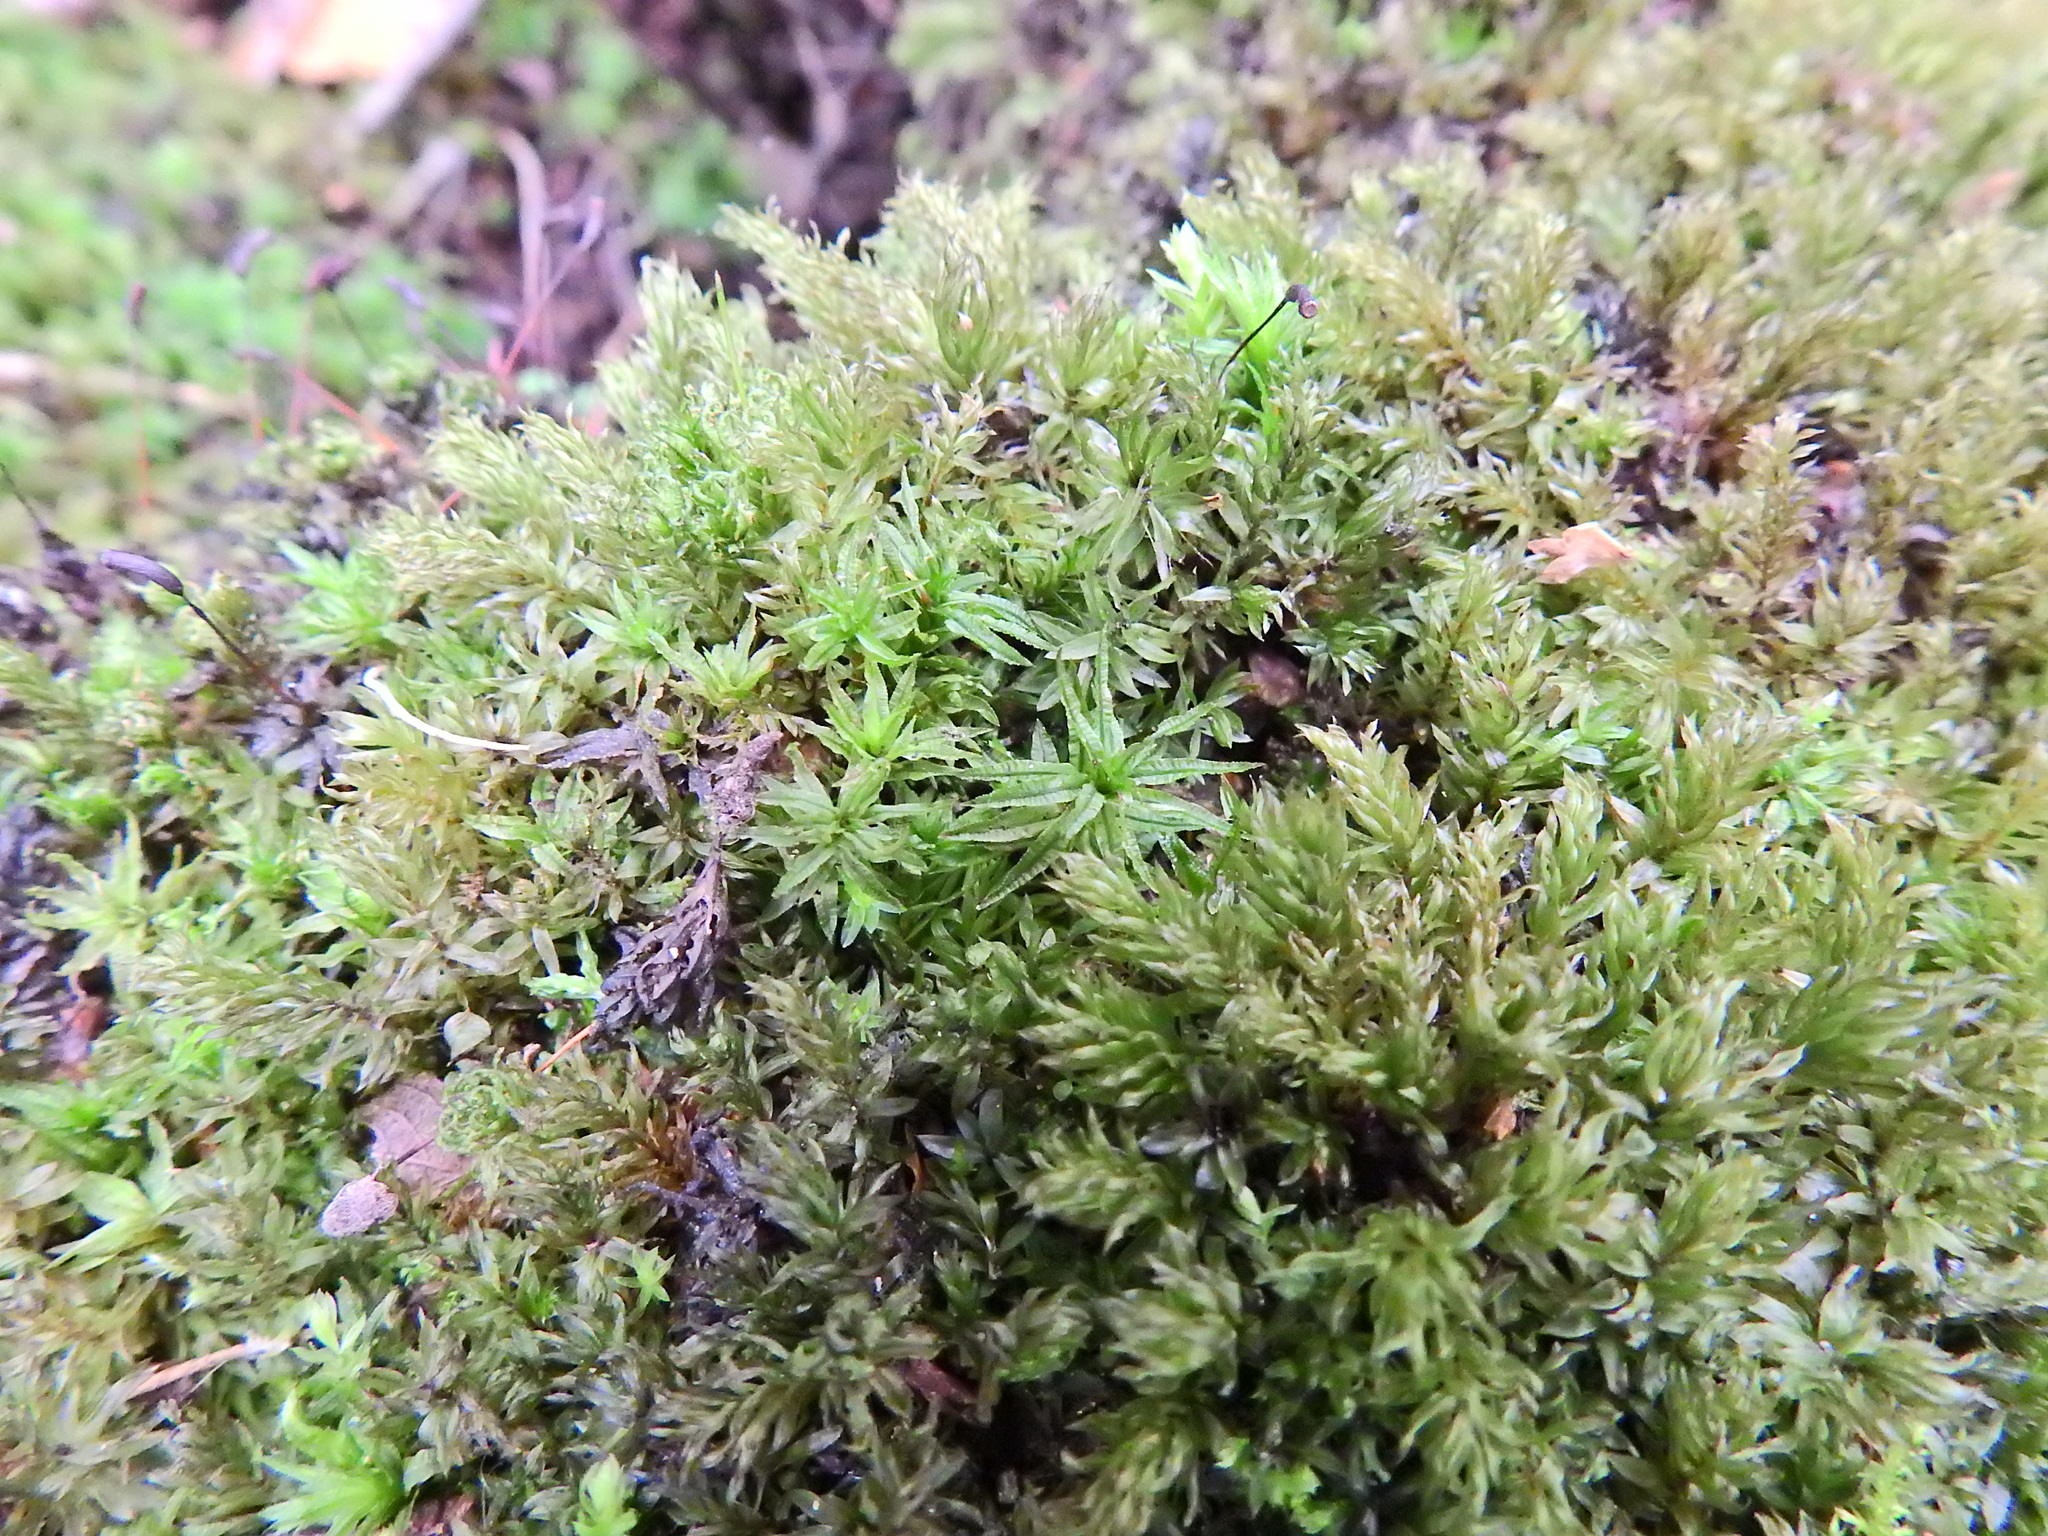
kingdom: Plantae
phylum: Bryophyta
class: Polytrichopsida
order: Polytrichales
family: Polytrichaceae
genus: Atrichum
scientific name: Atrichum undulatum
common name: Common smoothcap
